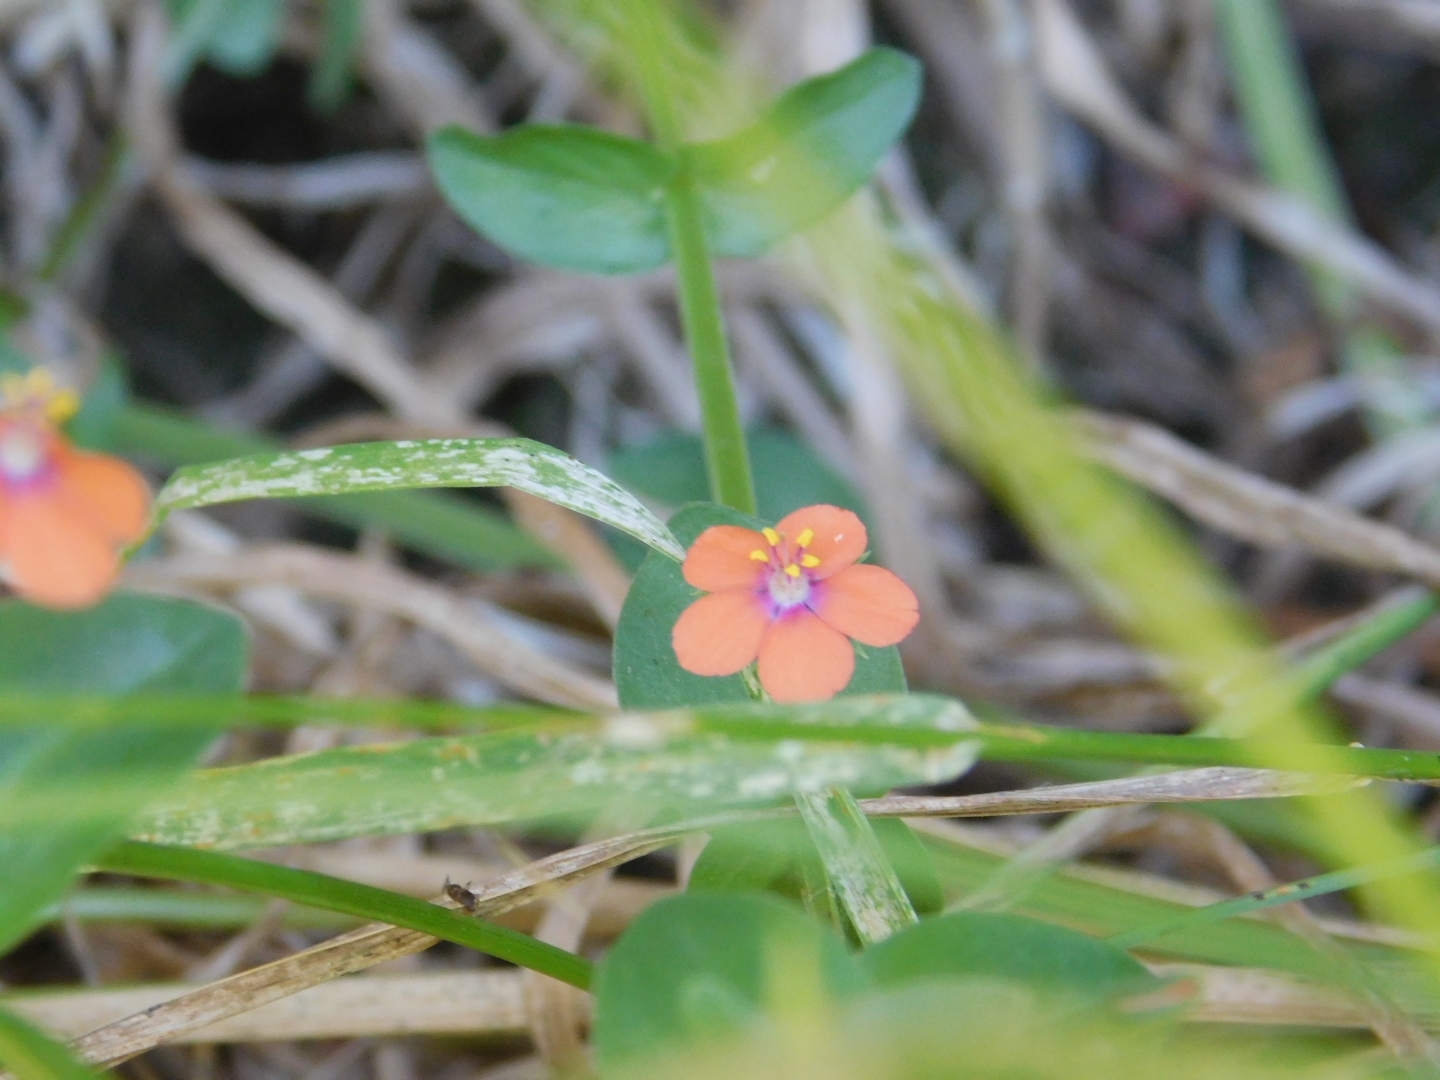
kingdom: Plantae
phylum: Tracheophyta
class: Magnoliopsida
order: Ericales
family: Primulaceae
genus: Lysimachia
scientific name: Lysimachia arvensis
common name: Scarlet pimpernel
